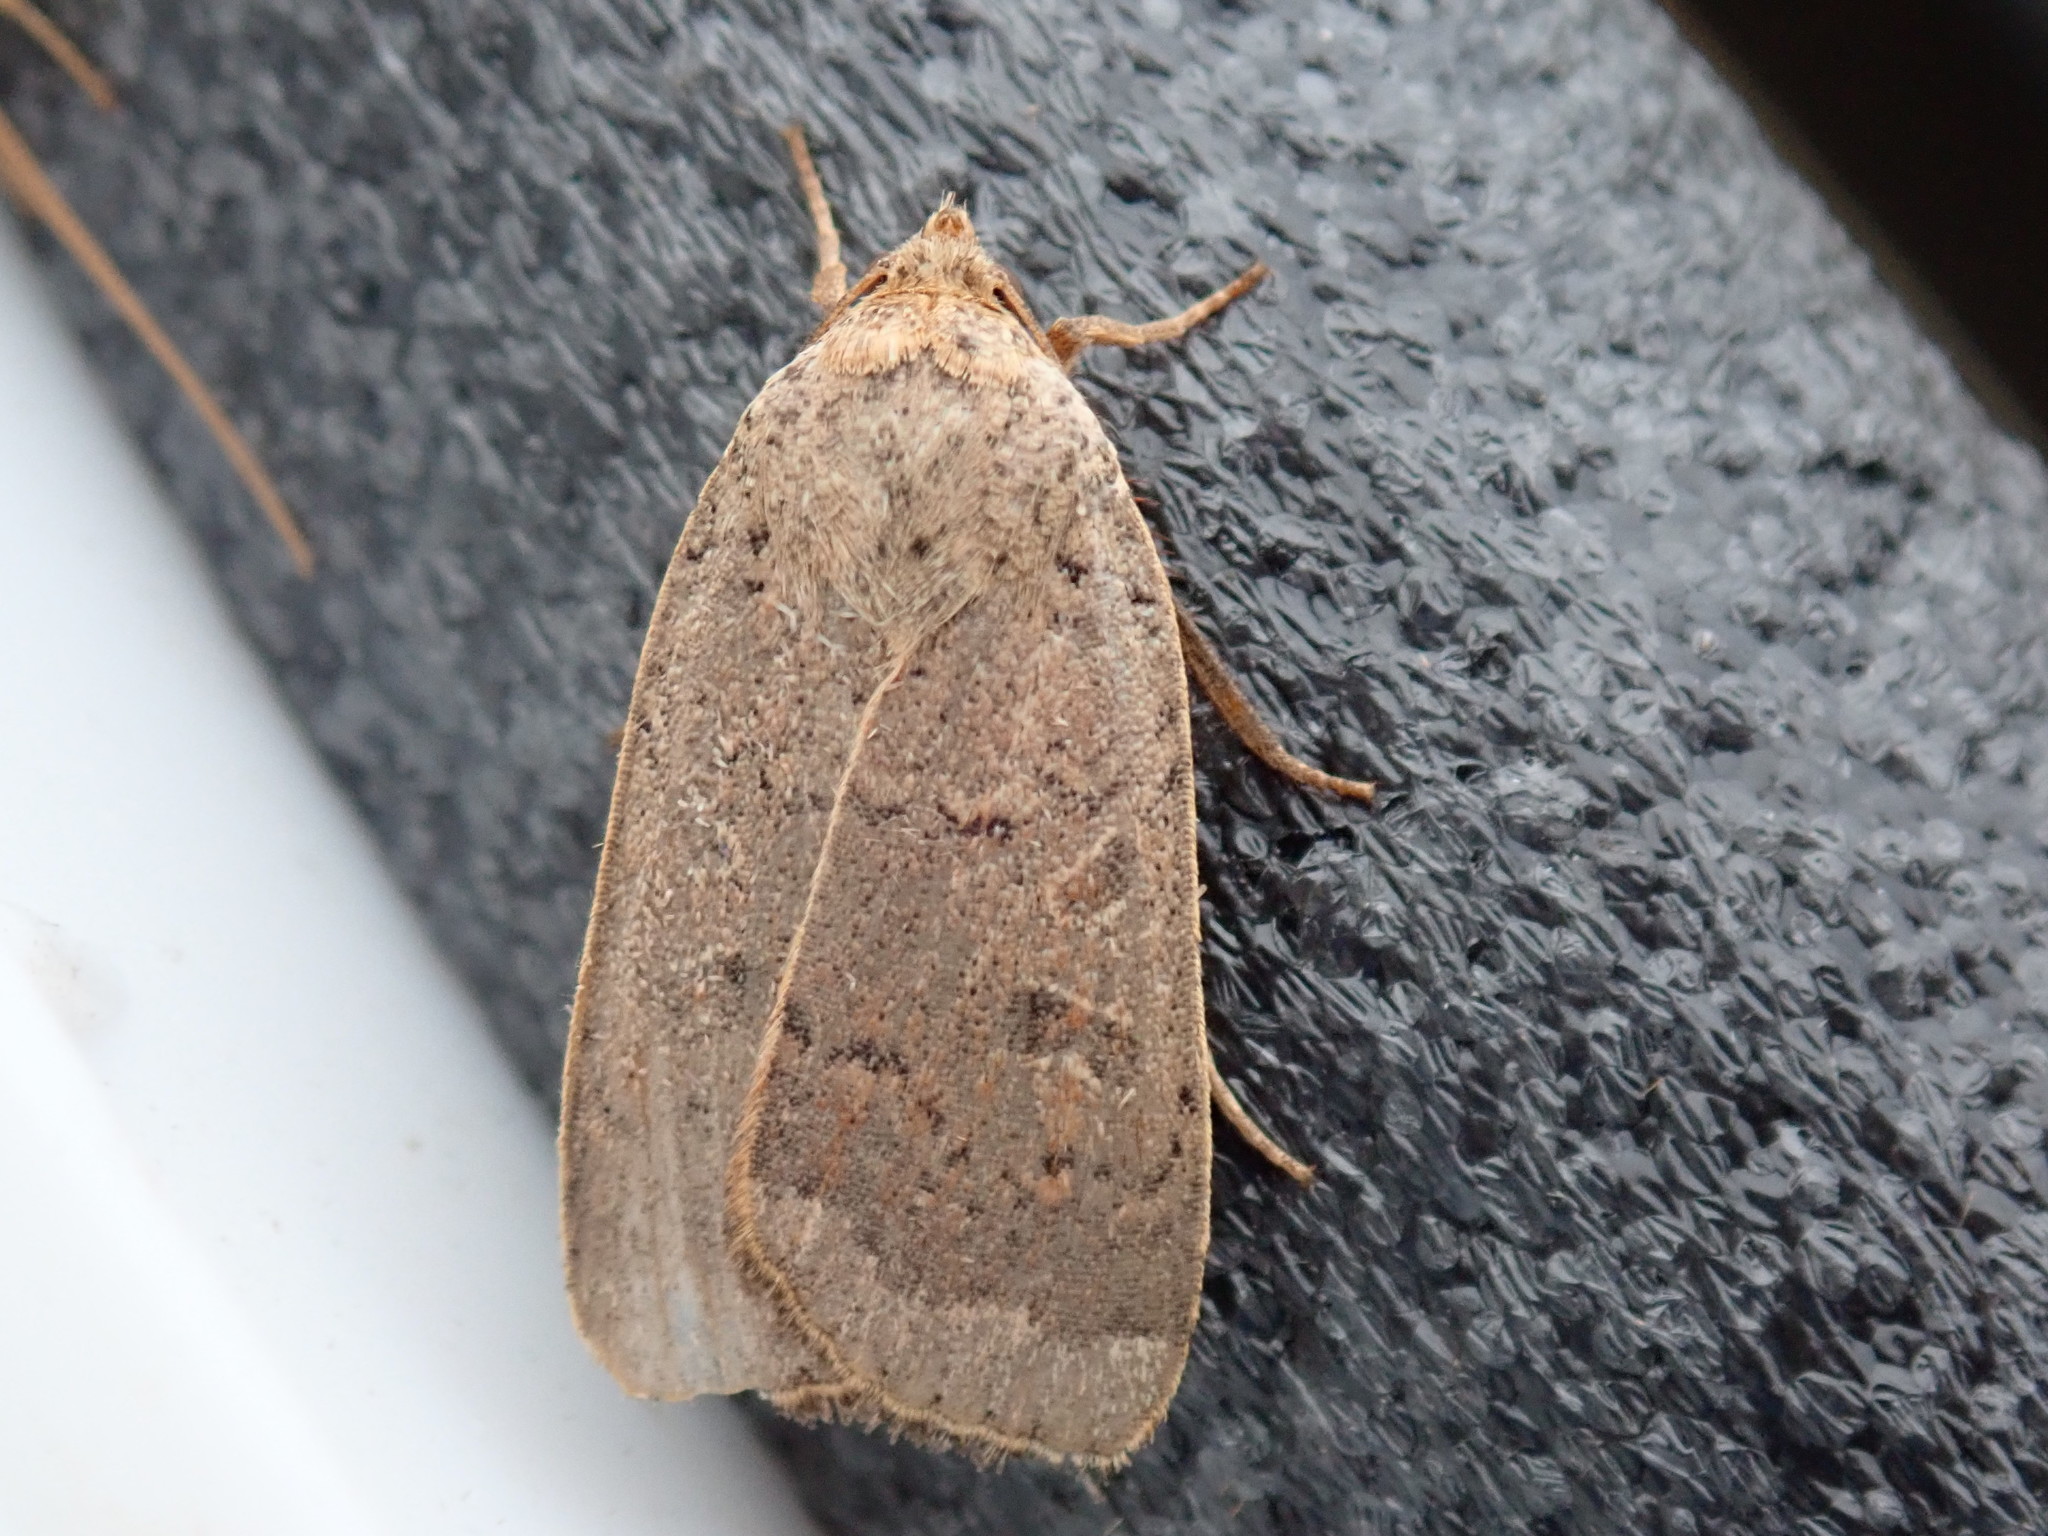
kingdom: Animalia
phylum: Arthropoda
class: Insecta
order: Lepidoptera
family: Noctuidae
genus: Abagrotis
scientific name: Abagrotis alternata
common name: Greater red dart
